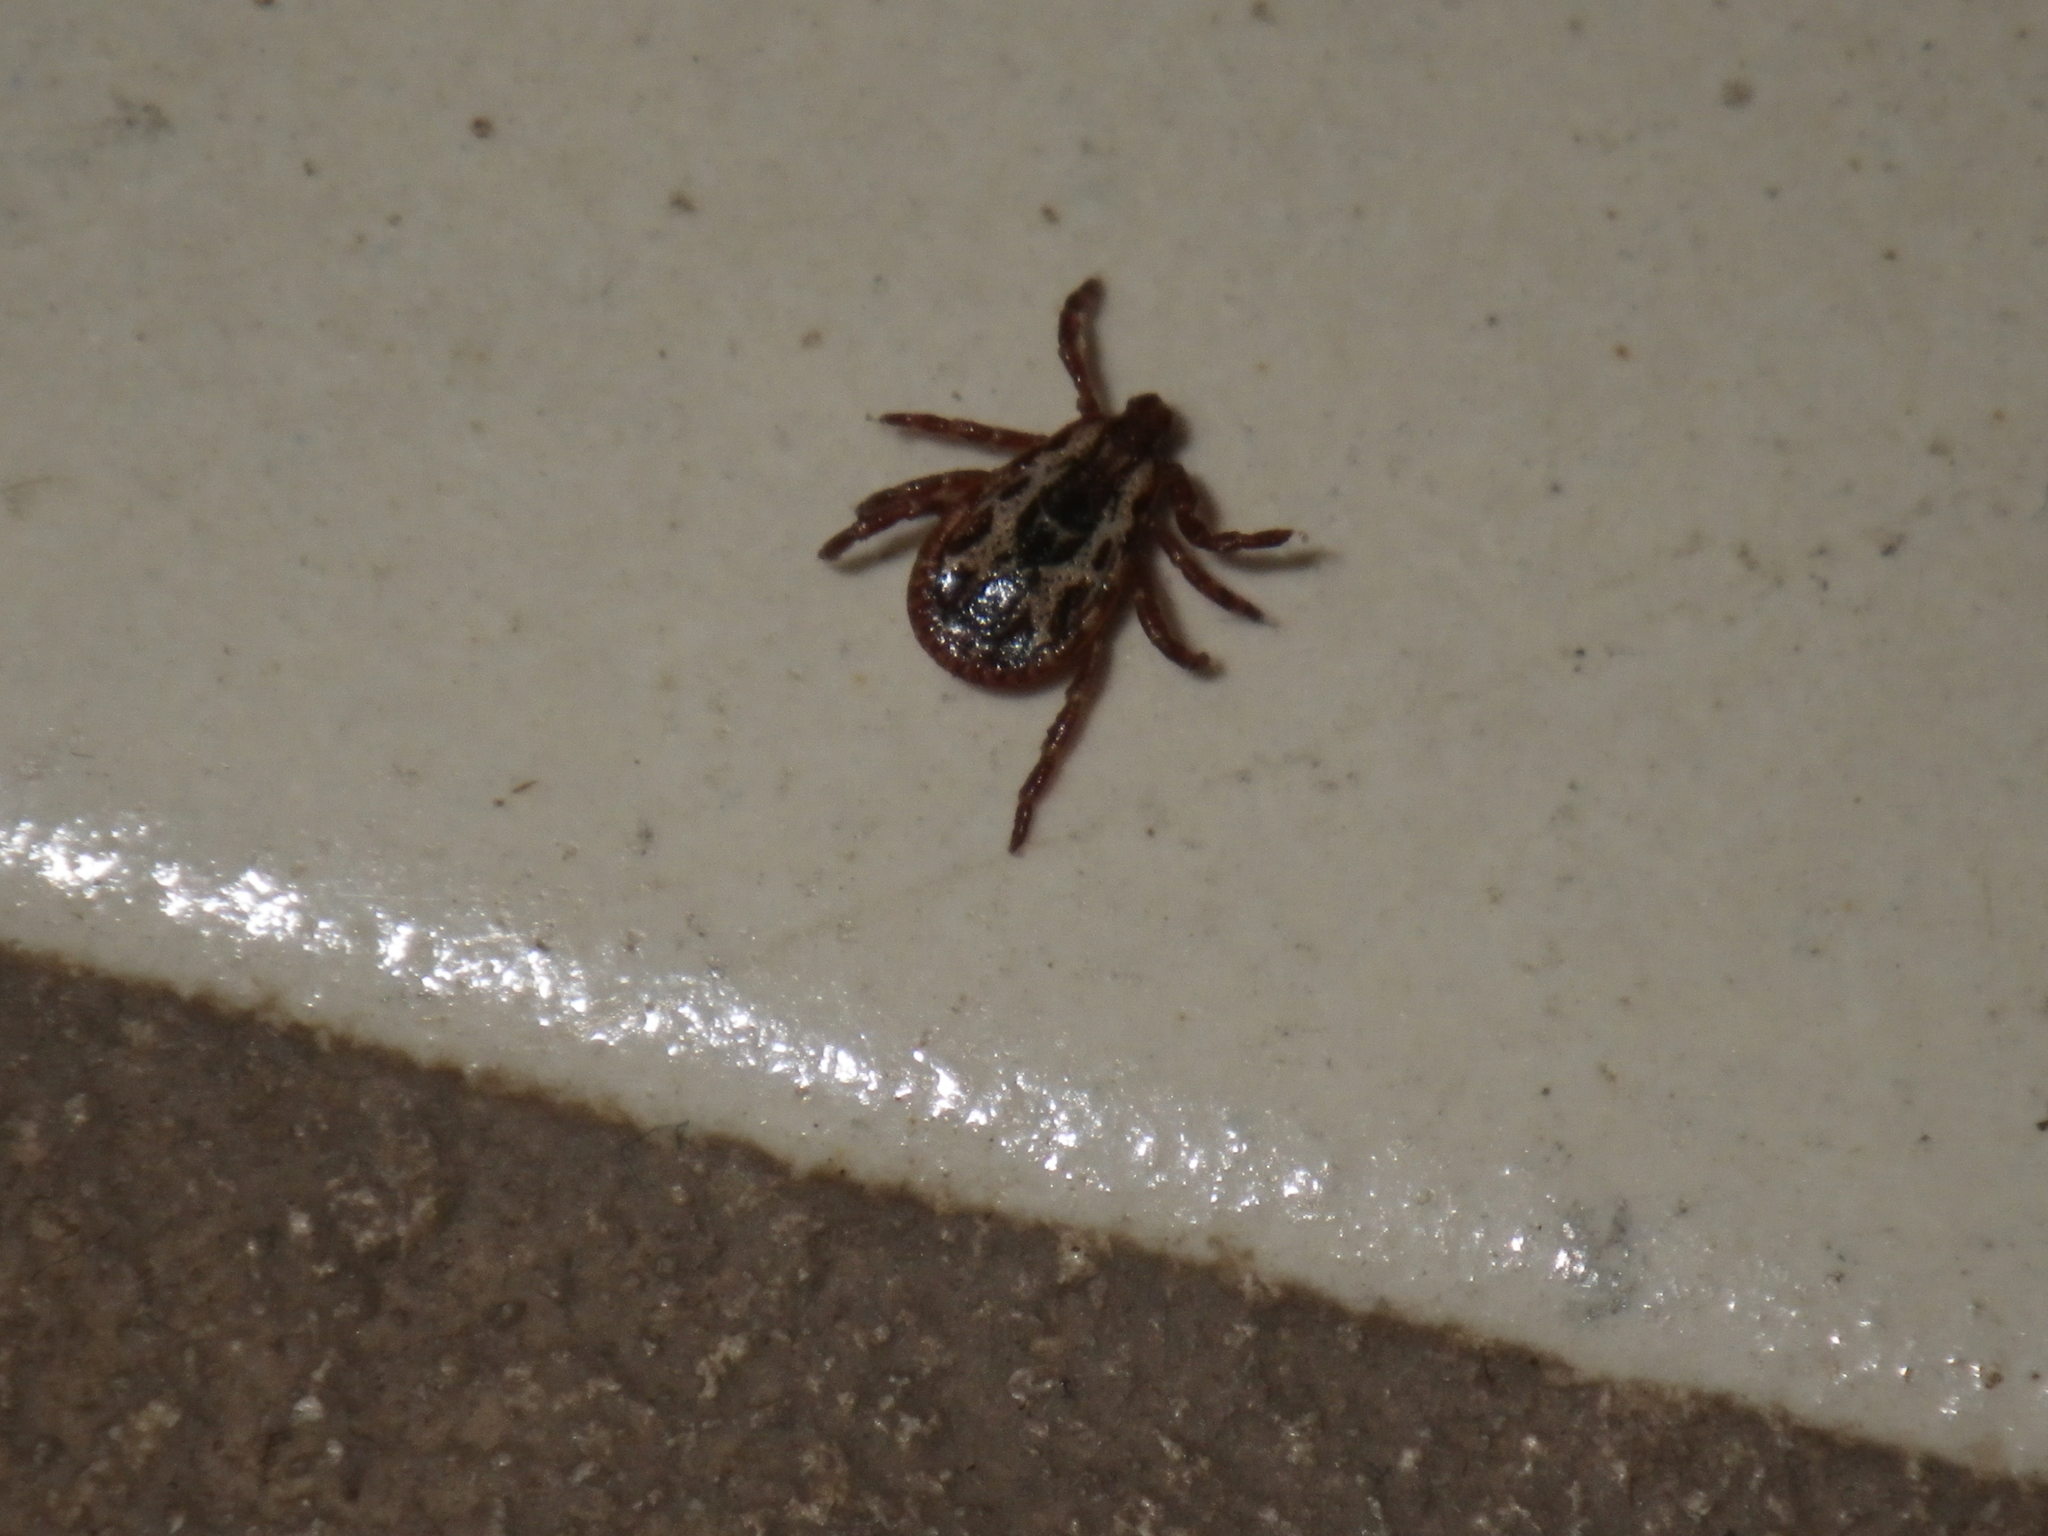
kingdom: Animalia
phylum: Arthropoda
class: Arachnida
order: Ixodida
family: Ixodidae
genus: Dermacentor
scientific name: Dermacentor variabilis
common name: American dog tick
